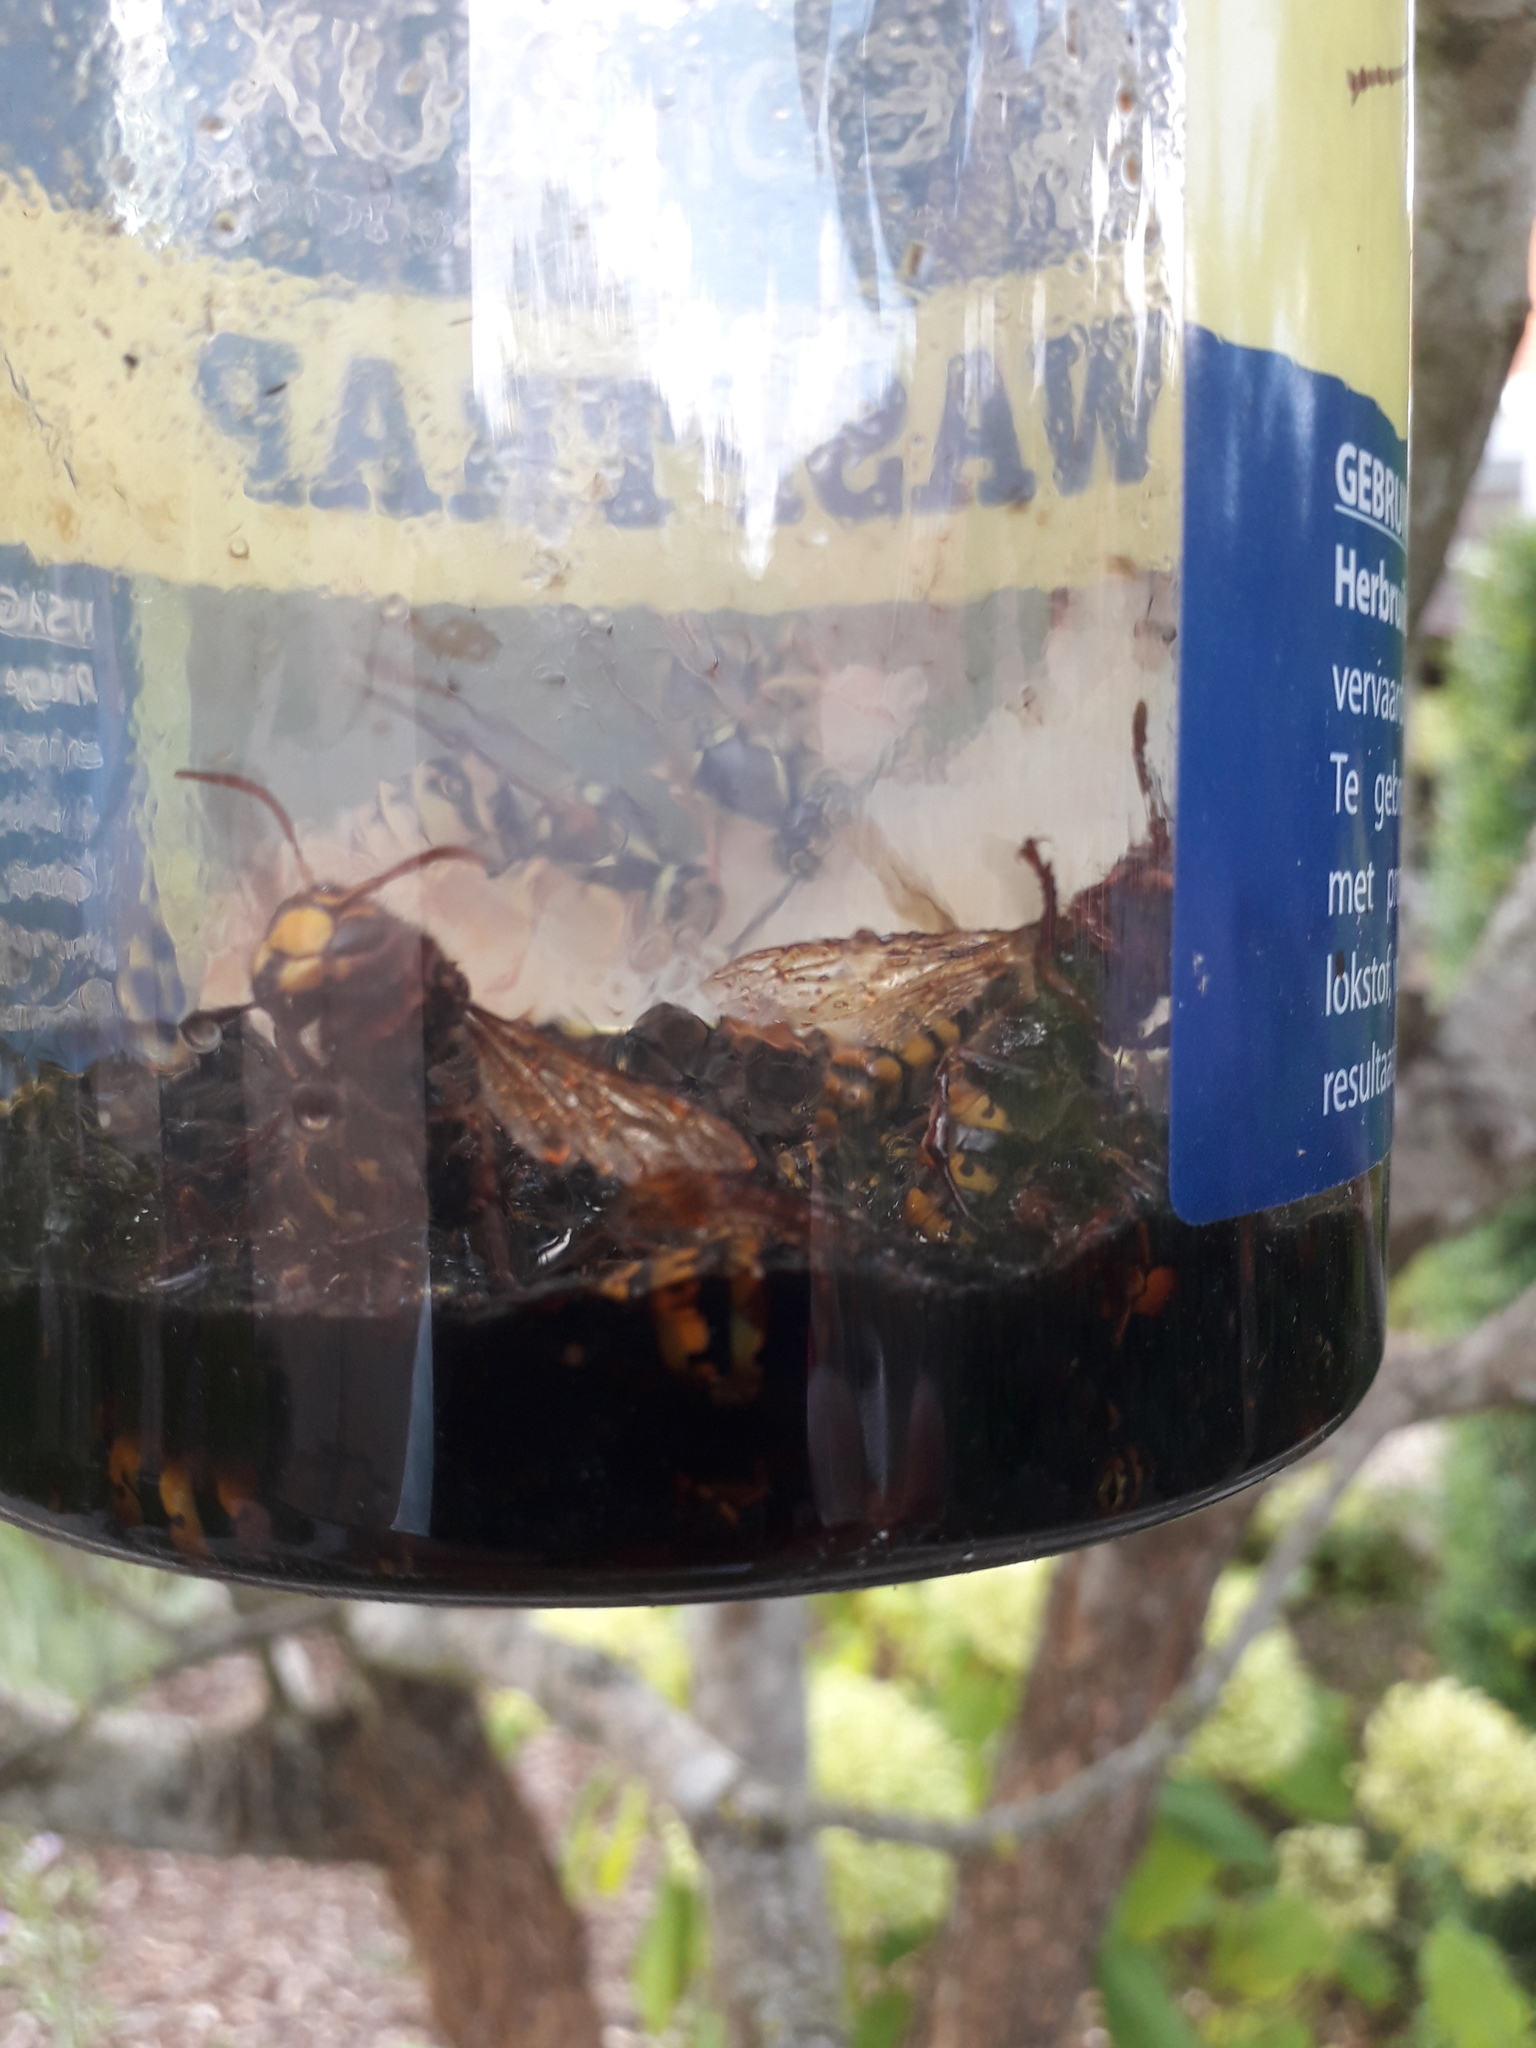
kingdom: Animalia
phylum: Arthropoda
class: Insecta
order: Hymenoptera
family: Vespidae
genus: Vespa
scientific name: Vespa crabro
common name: Hornet
